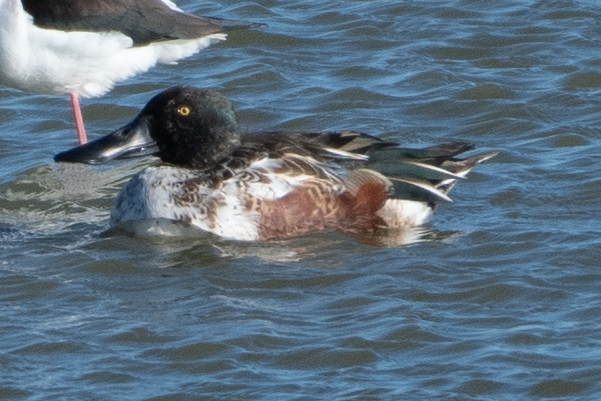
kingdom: Animalia
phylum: Chordata
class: Aves
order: Anseriformes
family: Anatidae
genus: Spatula
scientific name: Spatula clypeata
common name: Northern shoveler
